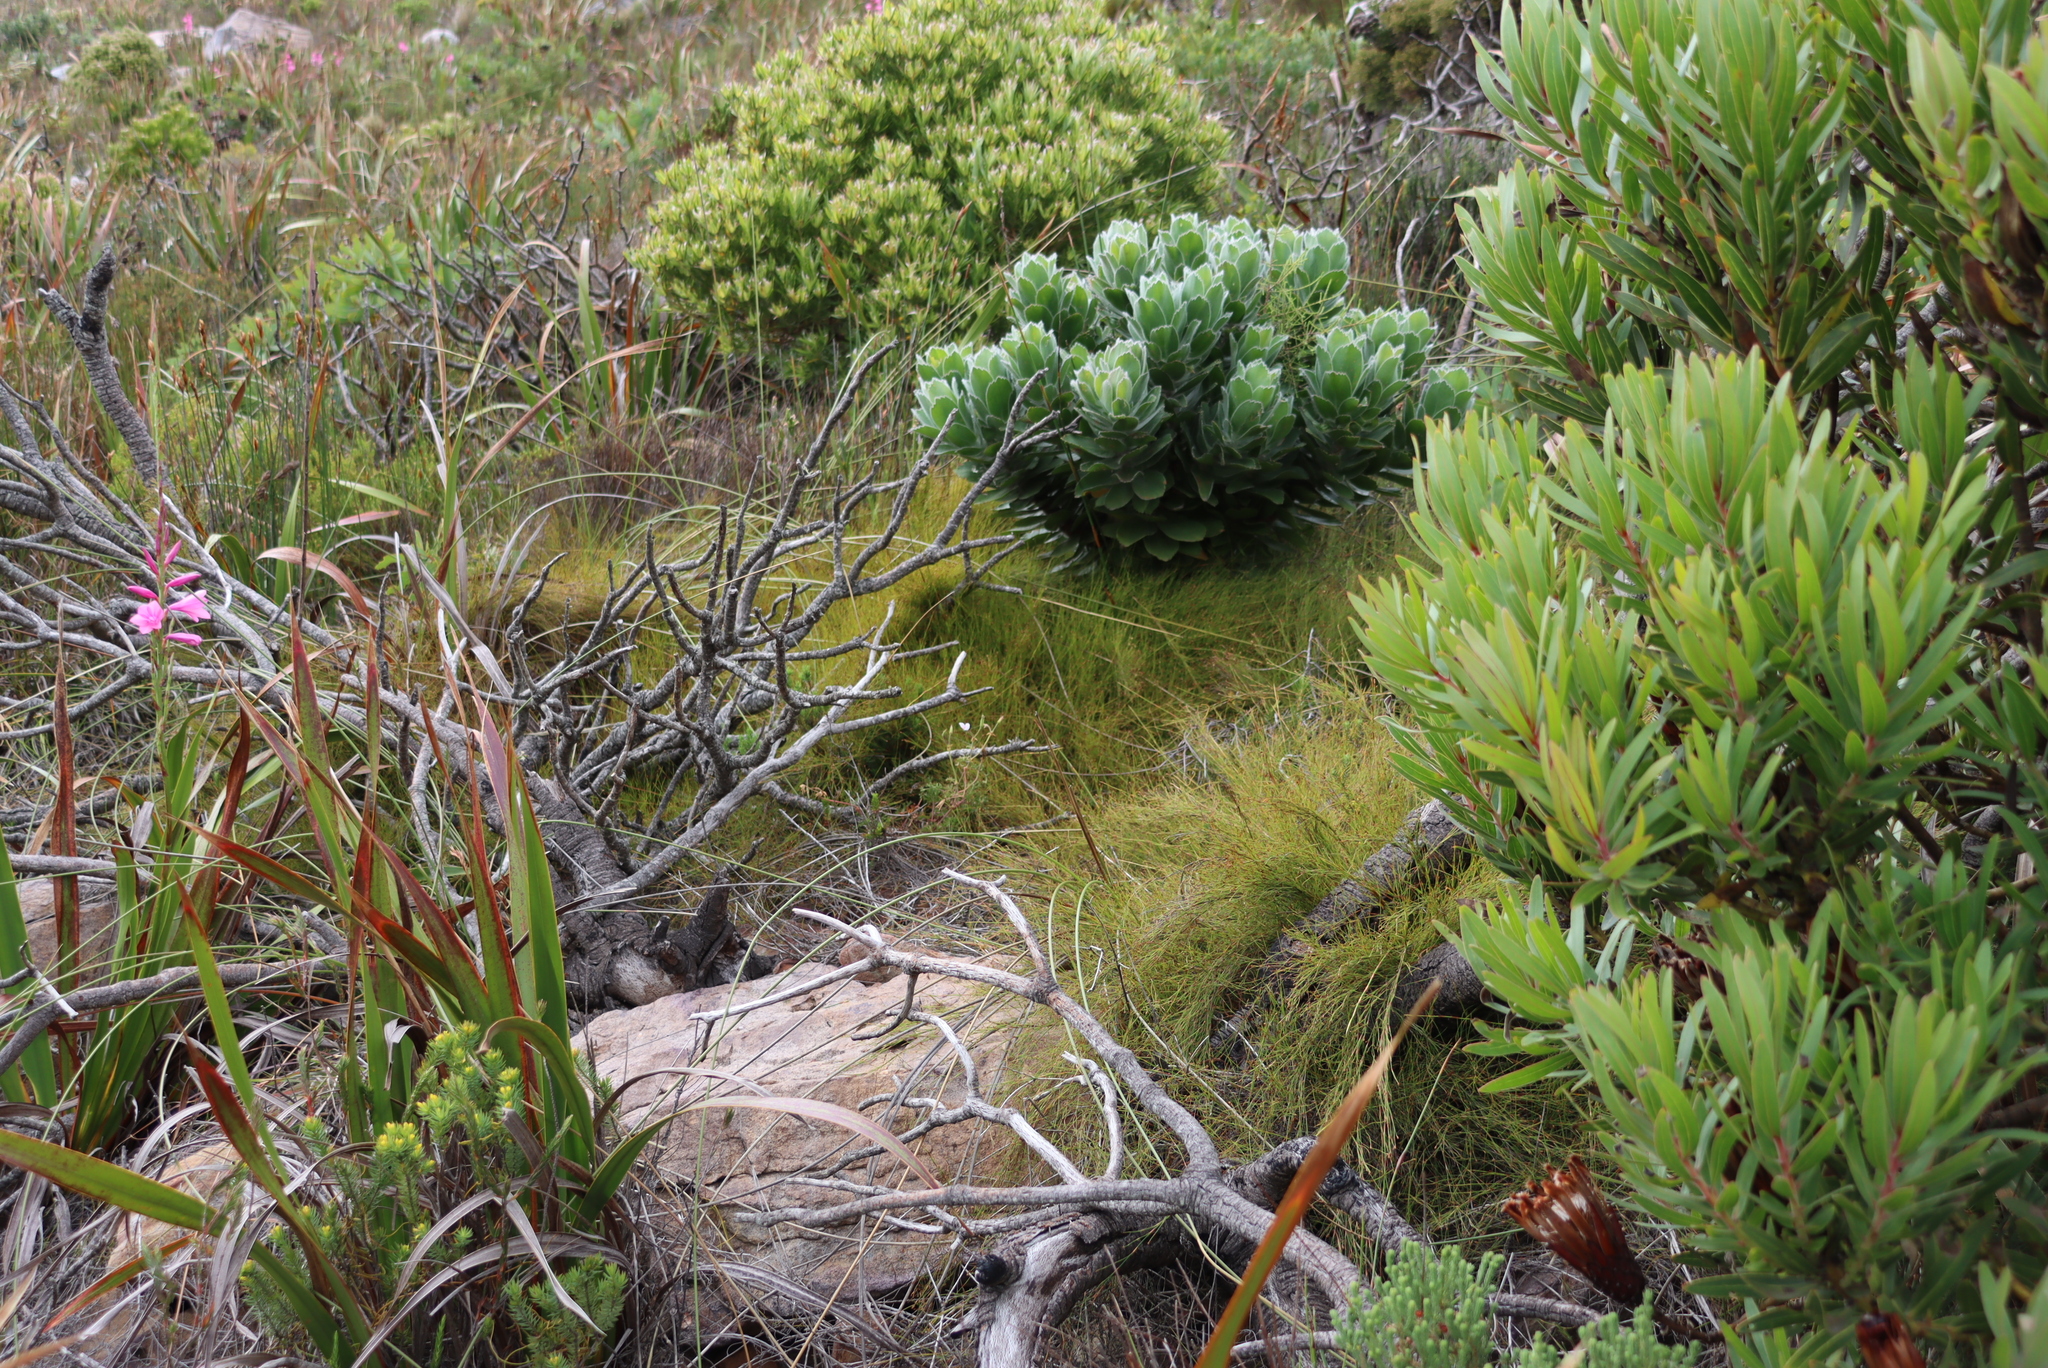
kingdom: Plantae
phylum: Tracheophyta
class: Magnoliopsida
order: Proteales
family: Proteaceae
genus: Leucospermum
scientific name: Leucospermum conocarpodendron
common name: Tree pincushion
